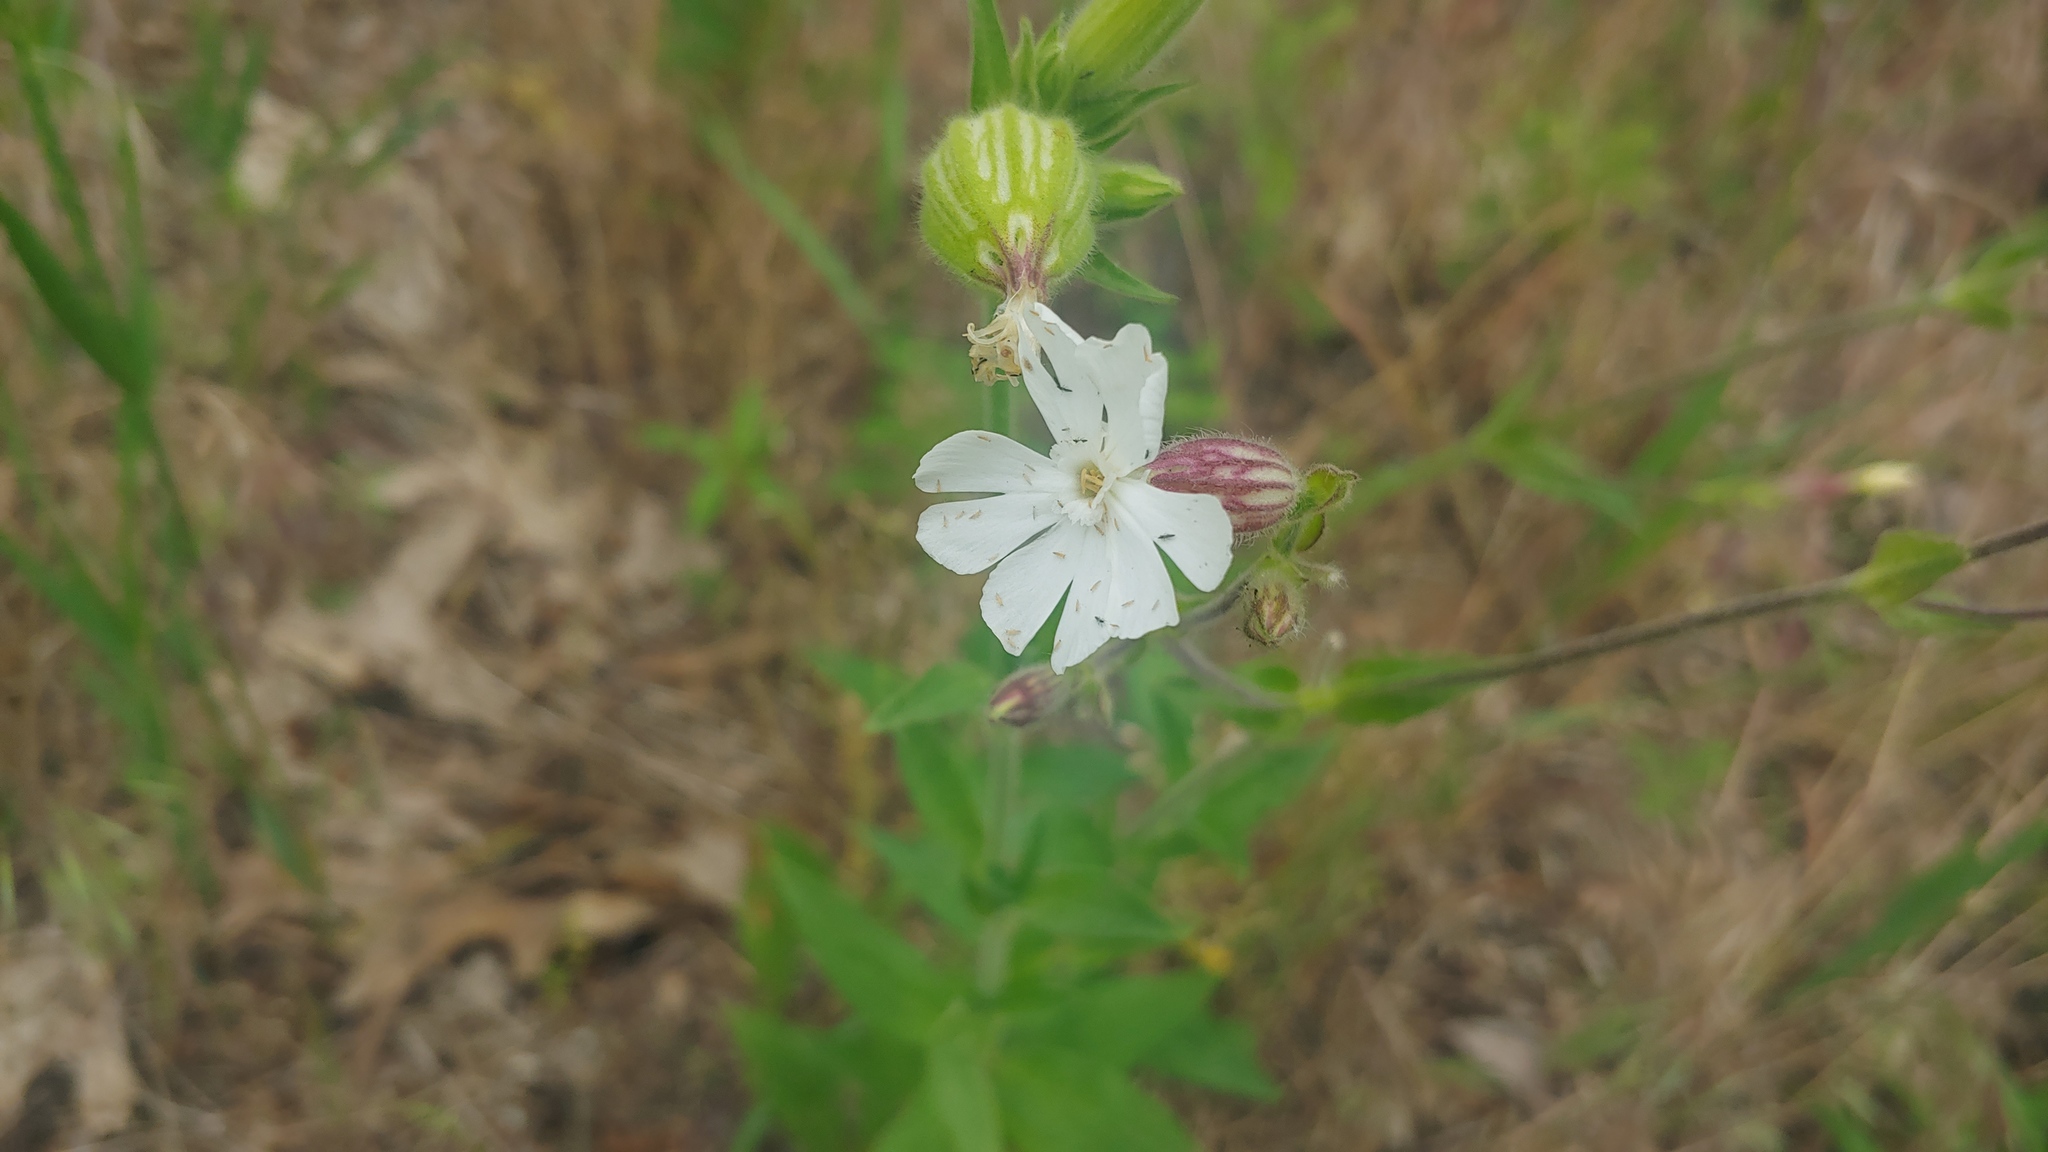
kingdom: Plantae
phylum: Tracheophyta
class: Magnoliopsida
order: Caryophyllales
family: Caryophyllaceae
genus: Silene
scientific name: Silene latifolia
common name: White campion
